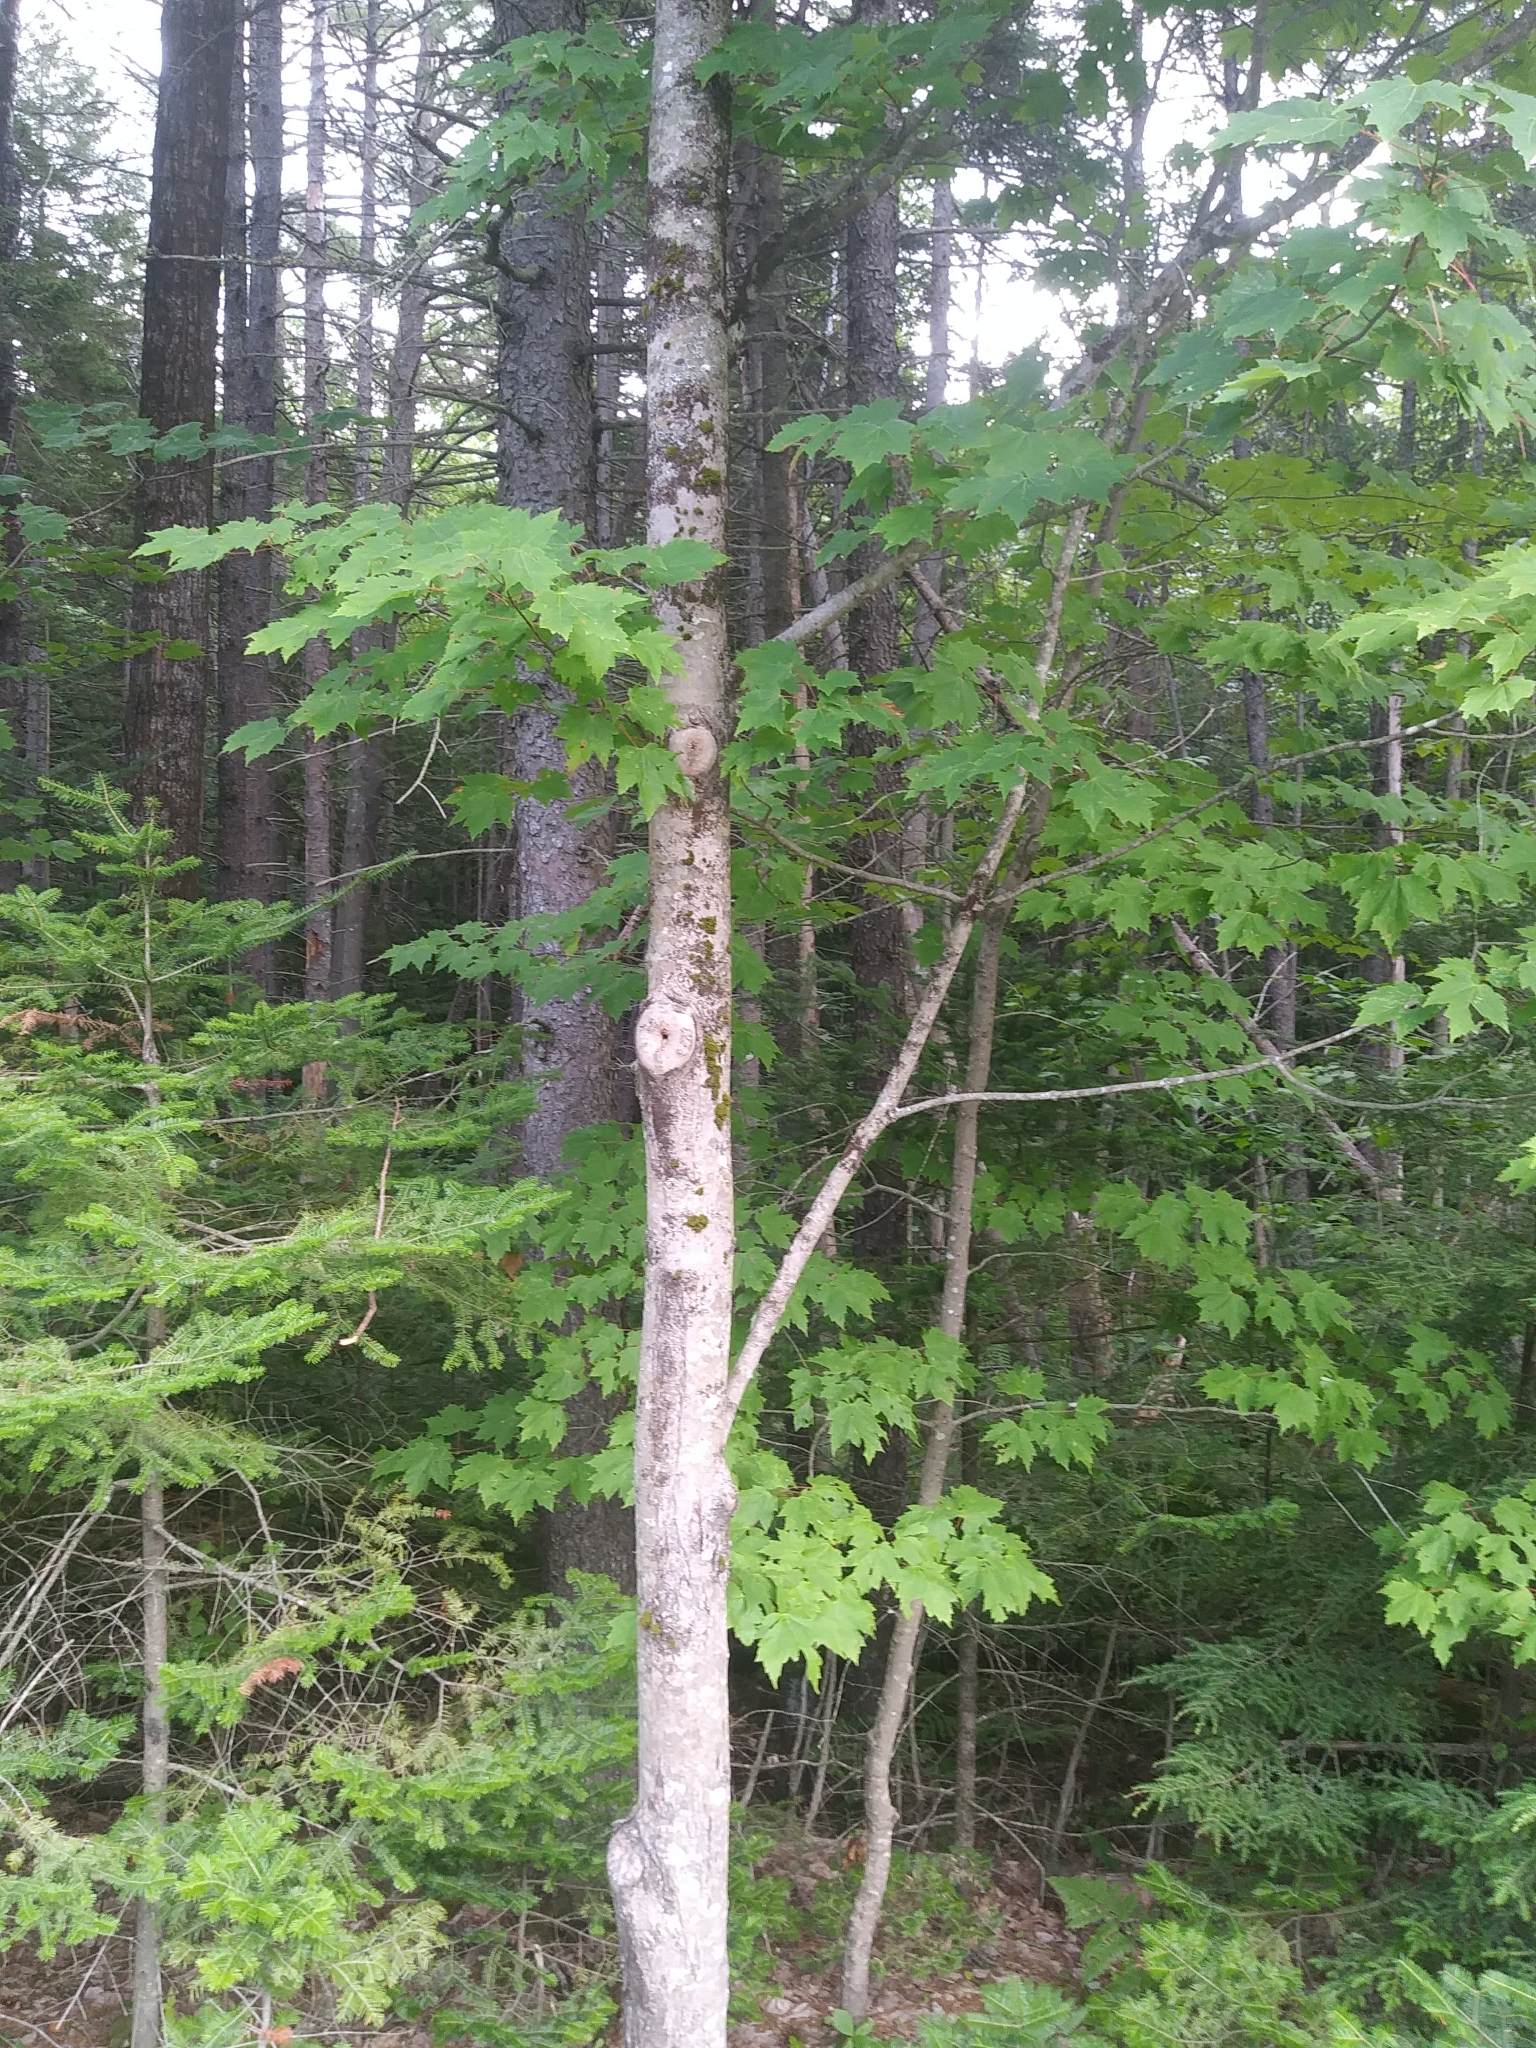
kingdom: Plantae
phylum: Tracheophyta
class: Magnoliopsida
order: Sapindales
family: Sapindaceae
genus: Acer
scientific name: Acer rubrum
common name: Red maple
